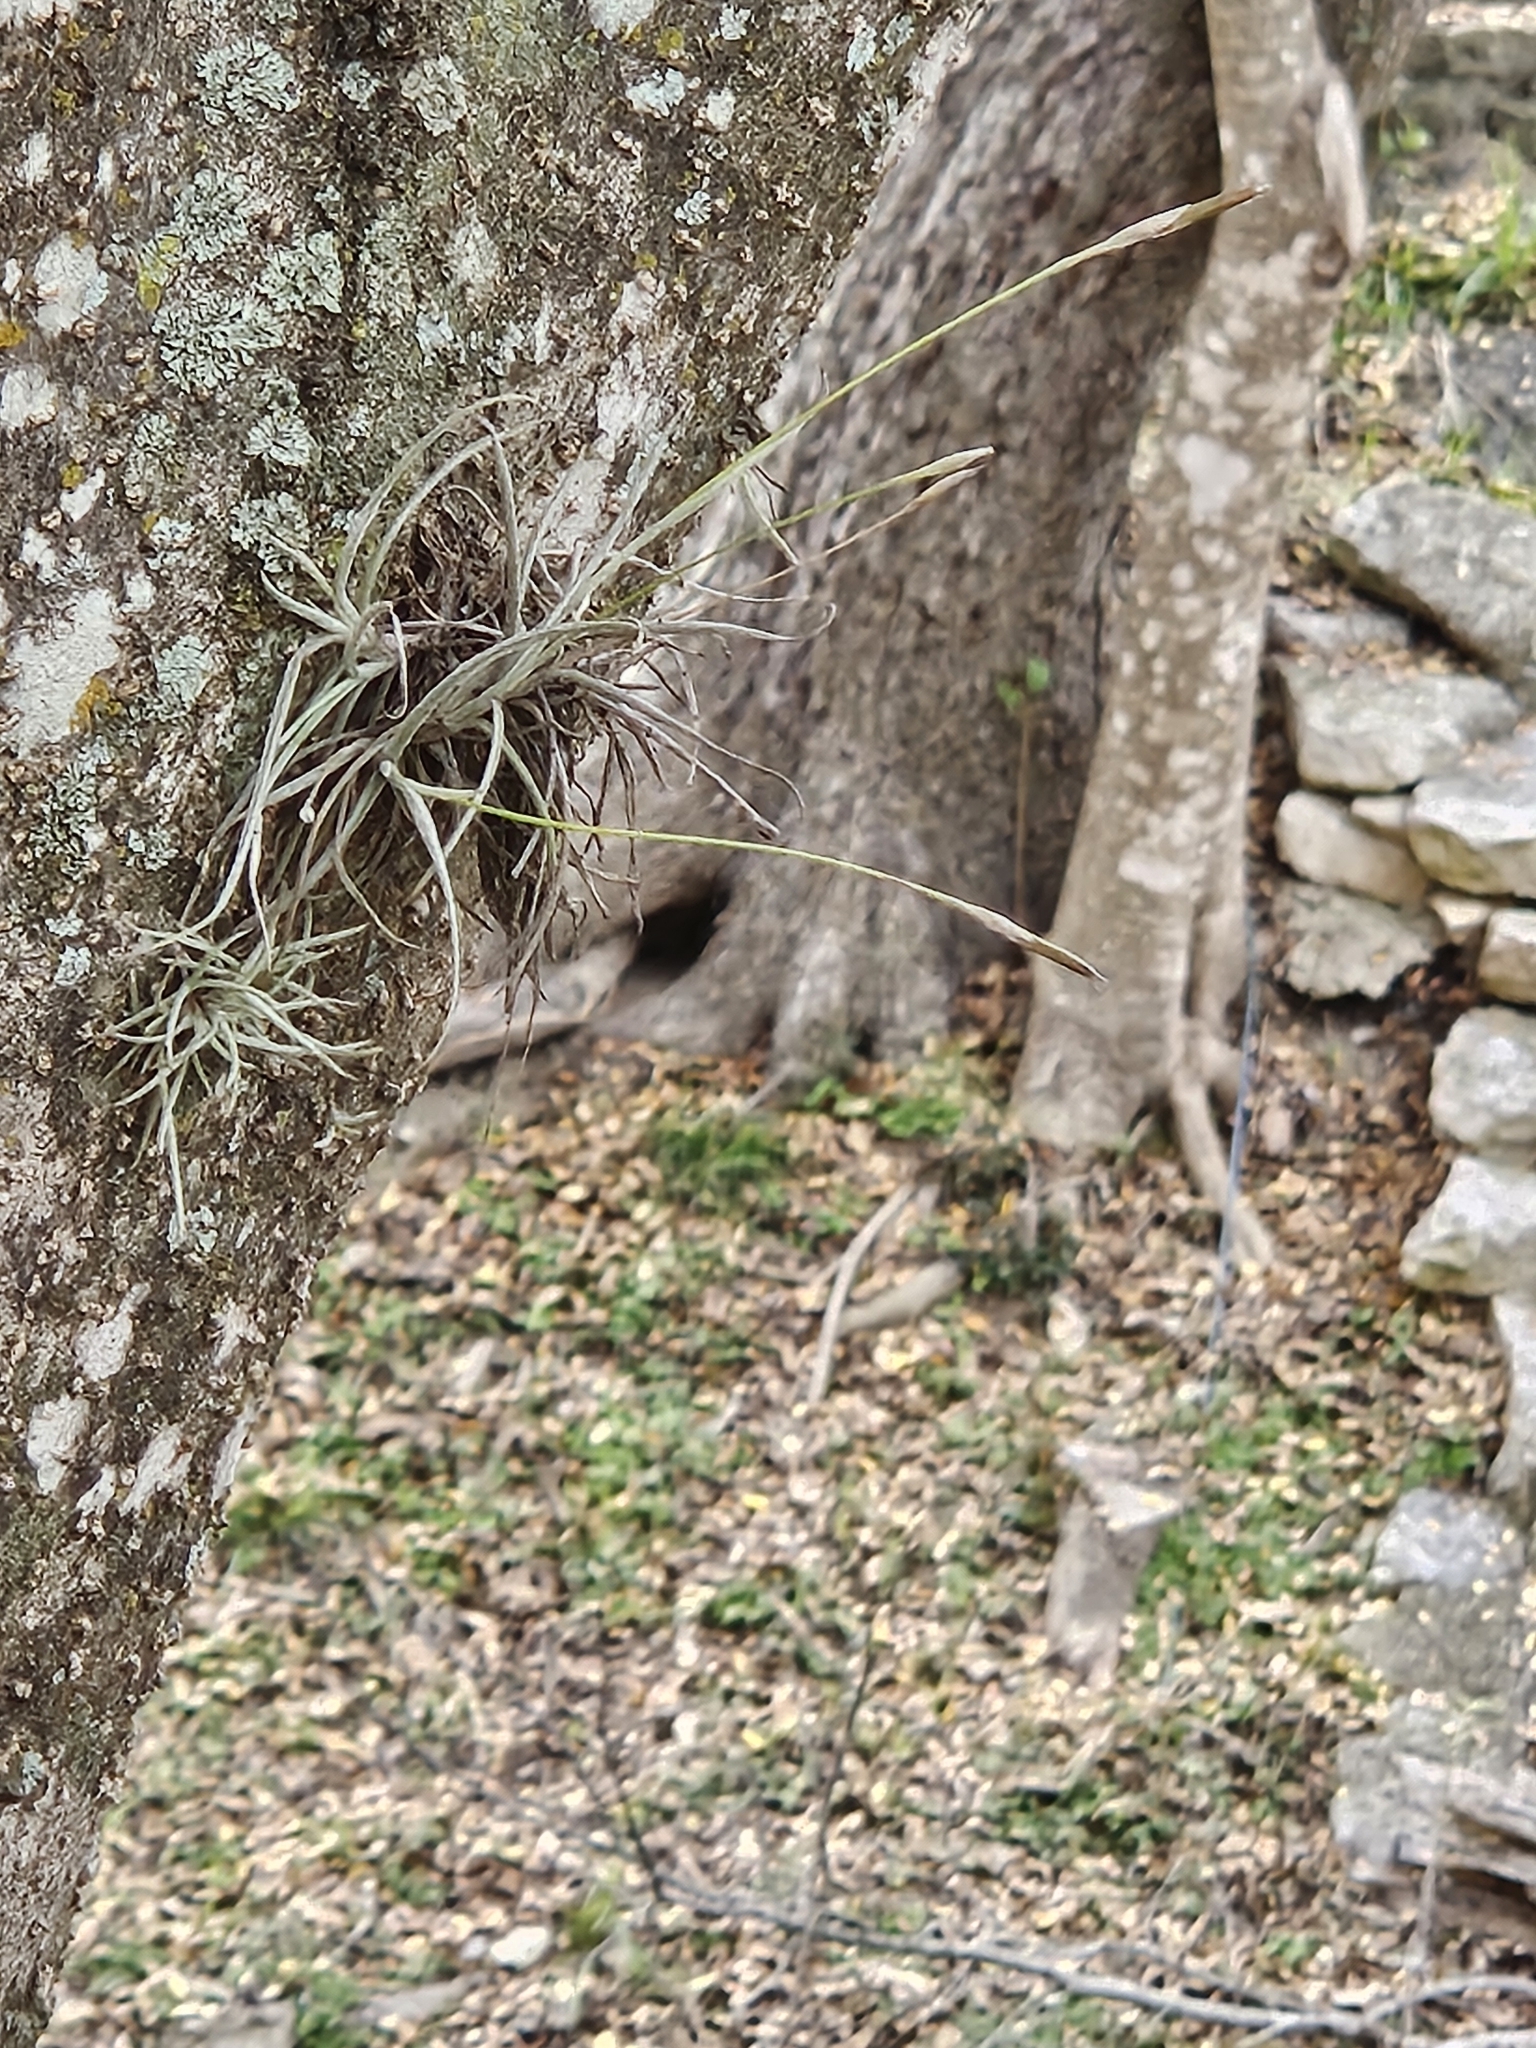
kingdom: Plantae
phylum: Tracheophyta
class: Liliopsida
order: Poales
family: Bromeliaceae
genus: Tillandsia
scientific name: Tillandsia recurvata
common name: Small ballmoss
